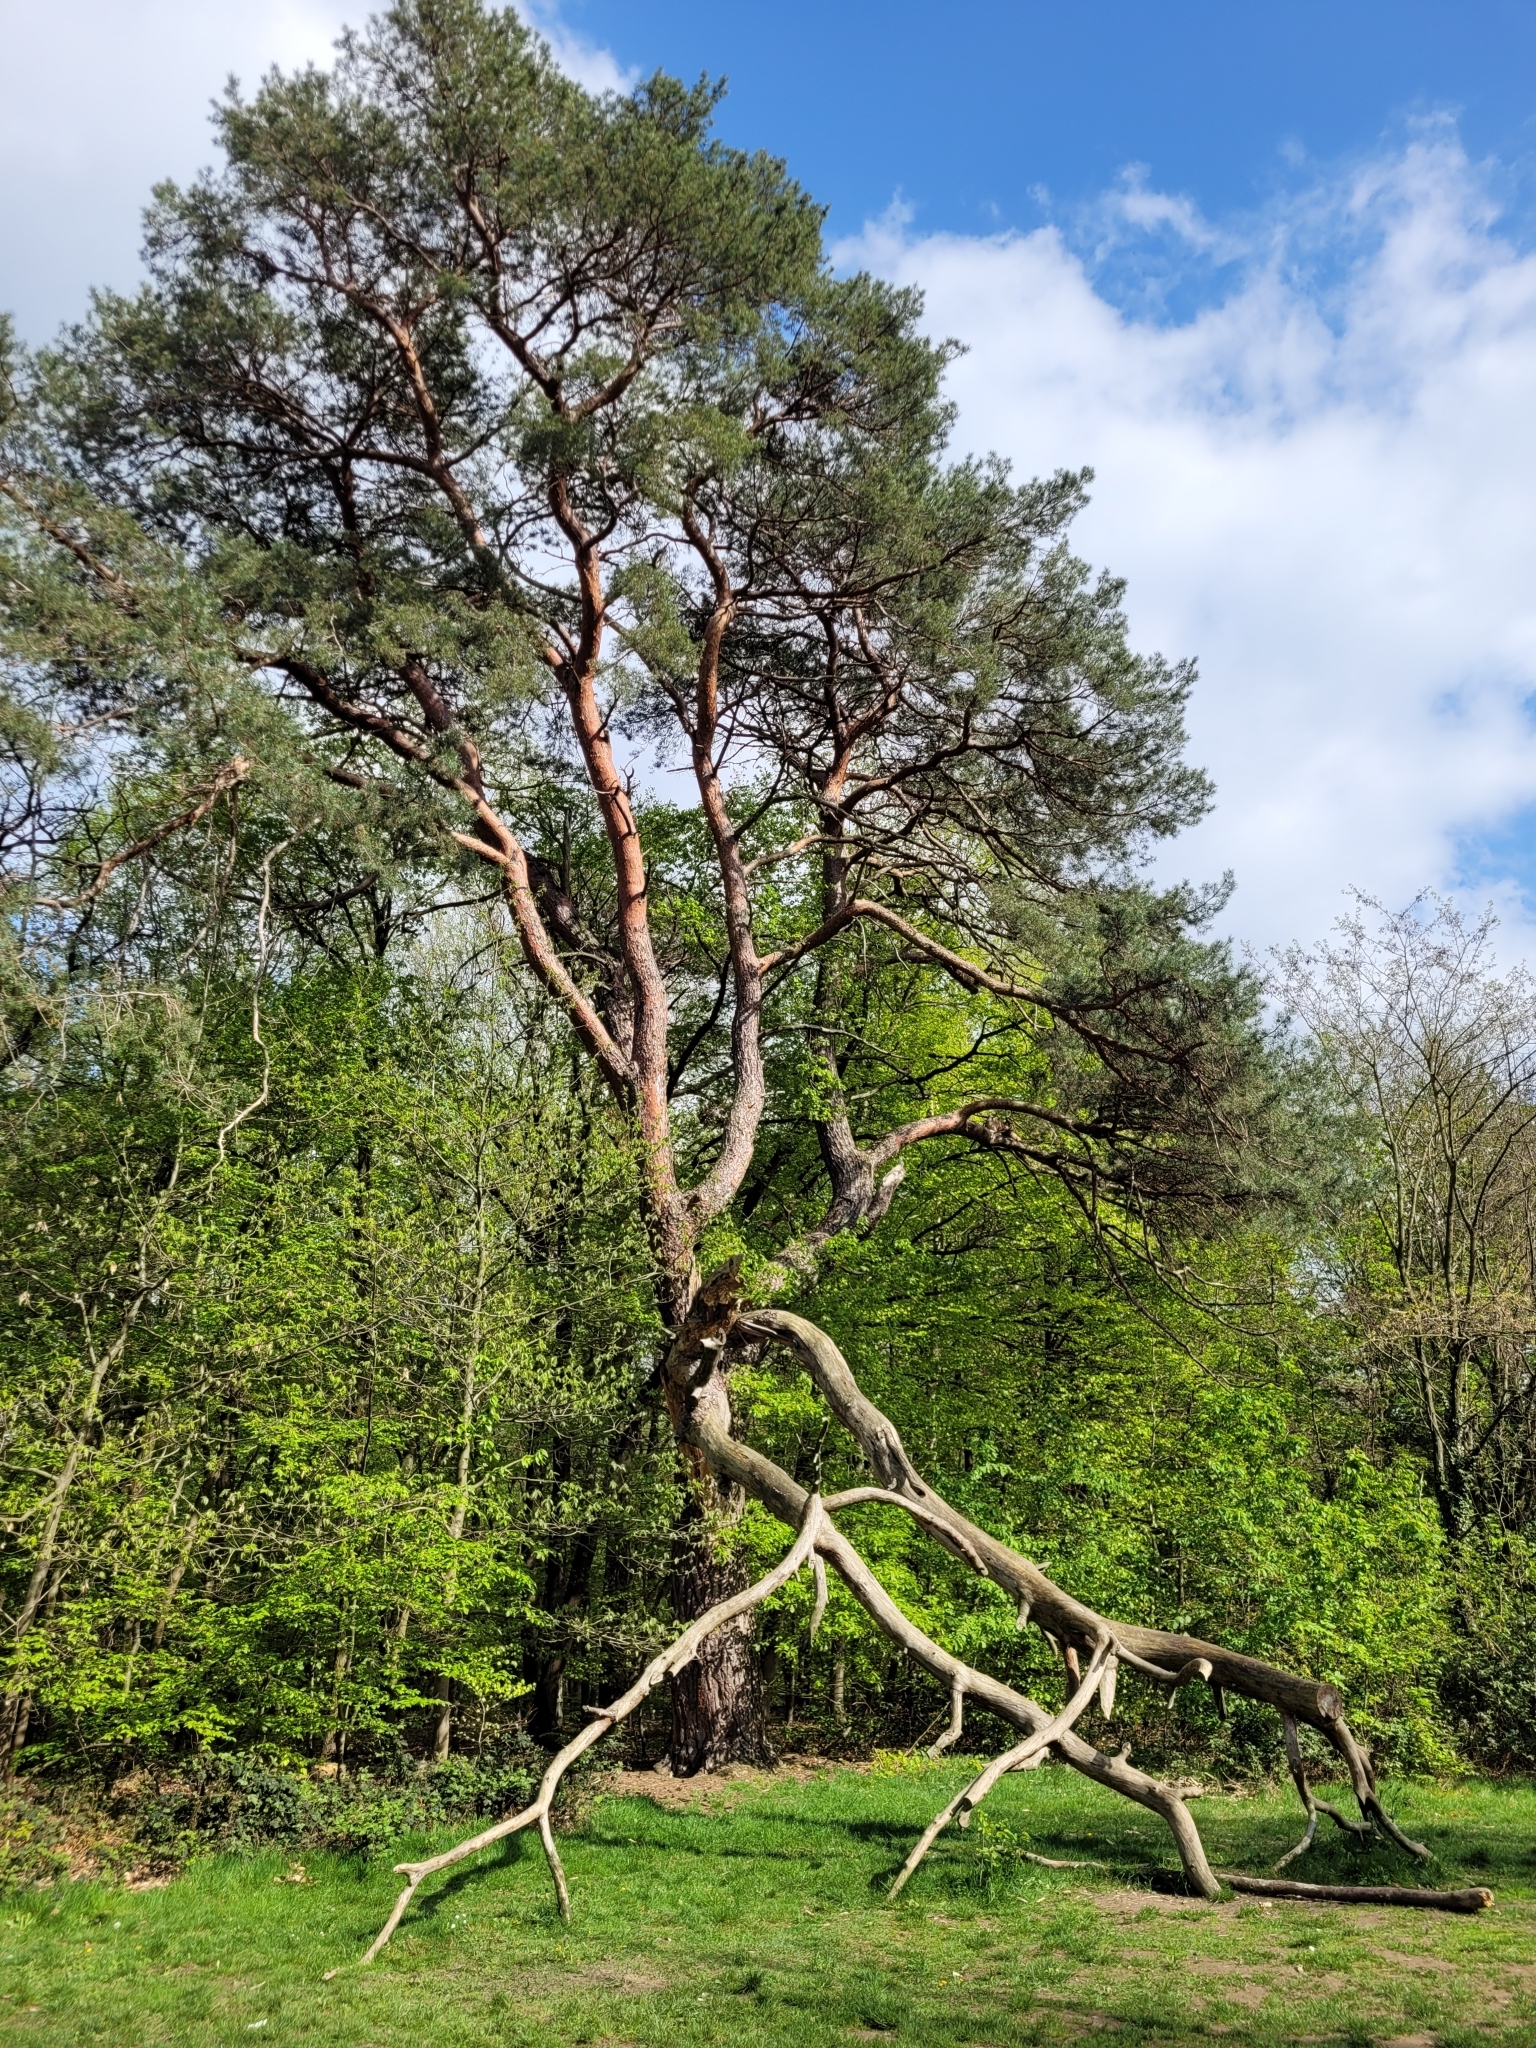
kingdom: Plantae
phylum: Tracheophyta
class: Pinopsida
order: Pinales
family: Pinaceae
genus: Pinus
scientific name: Pinus sylvestris
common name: Scots pine
